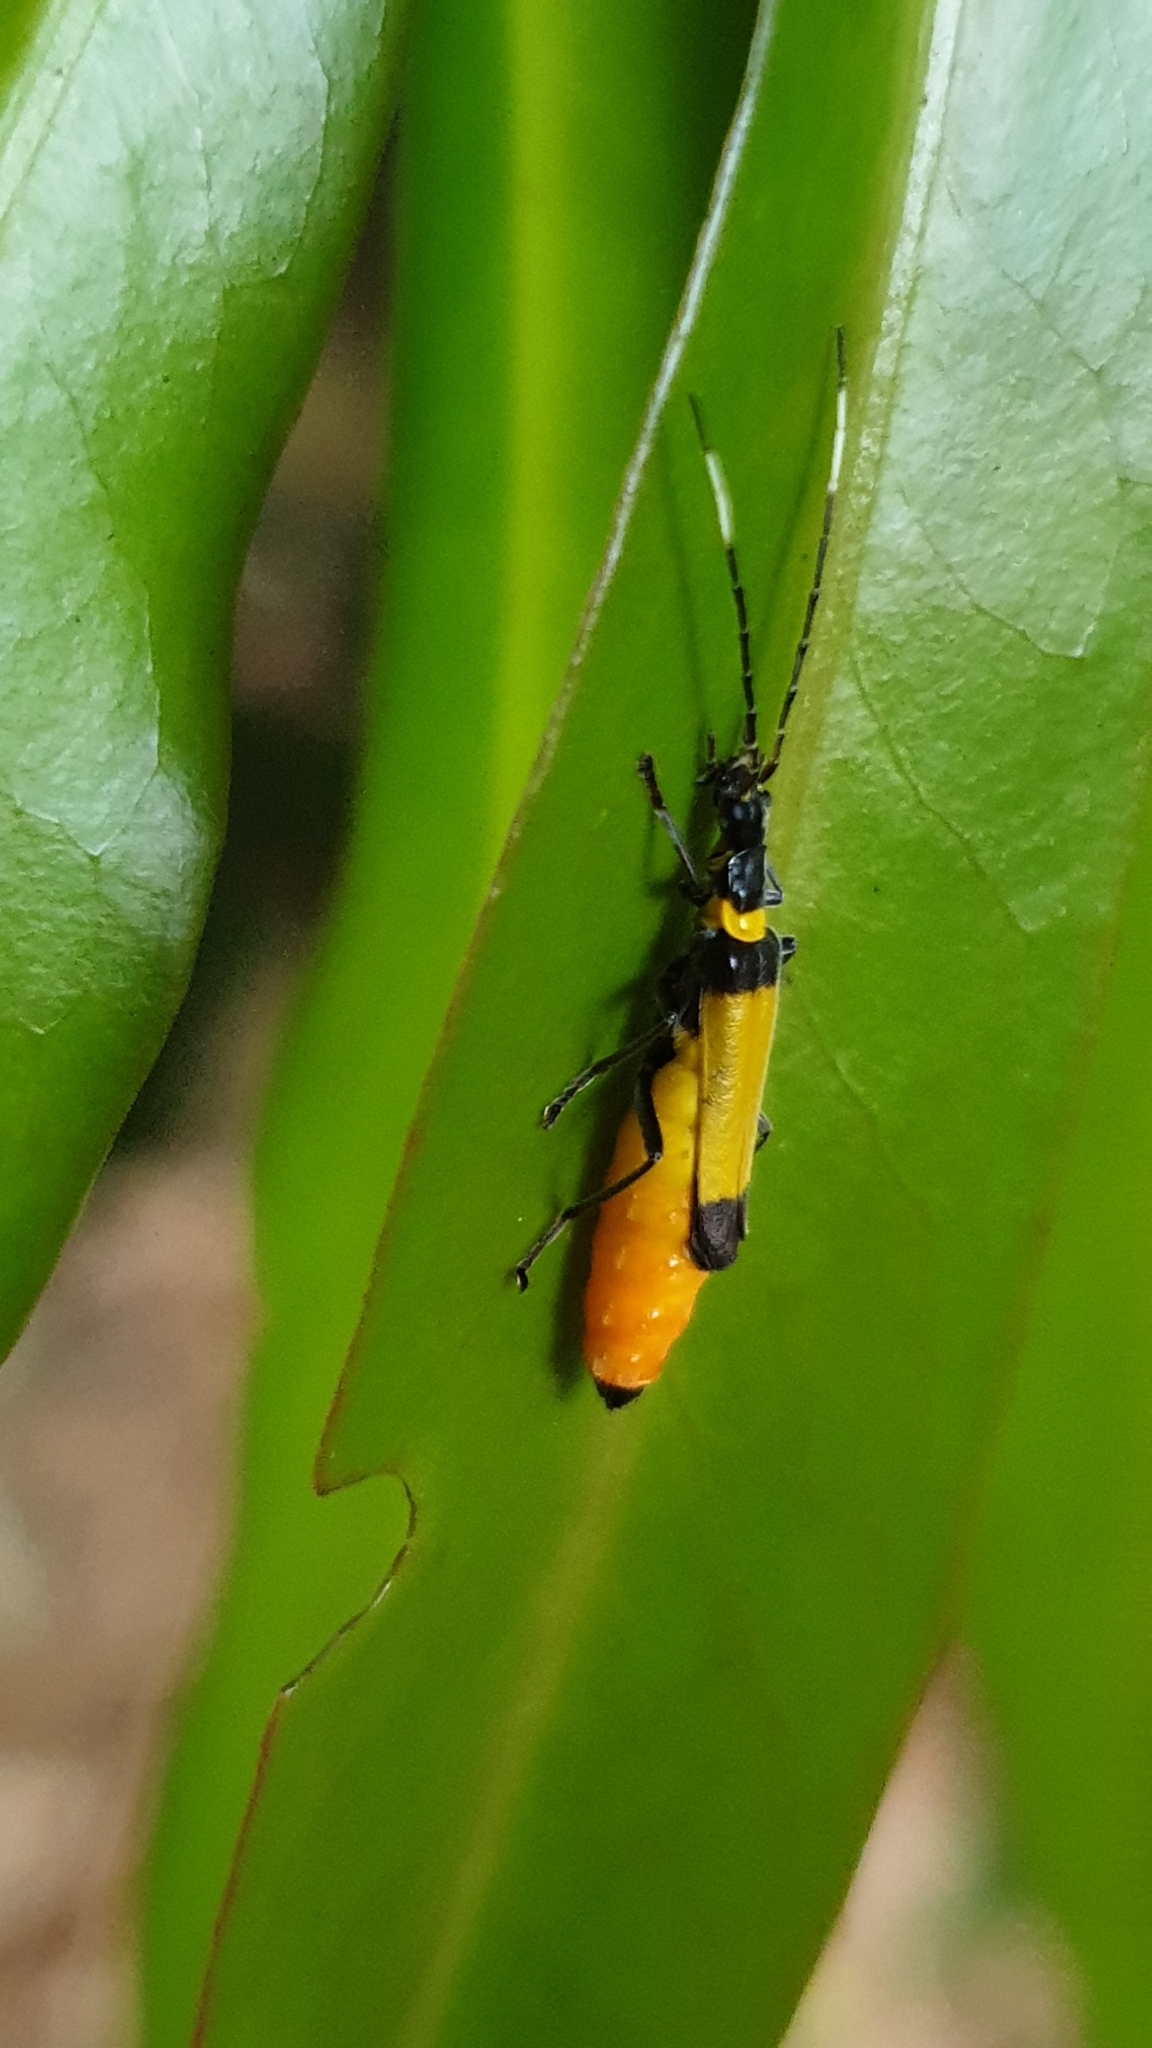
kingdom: Animalia
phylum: Arthropoda
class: Insecta
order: Coleoptera
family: Cantharidae
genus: Chauliognathus
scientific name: Chauliognathus
